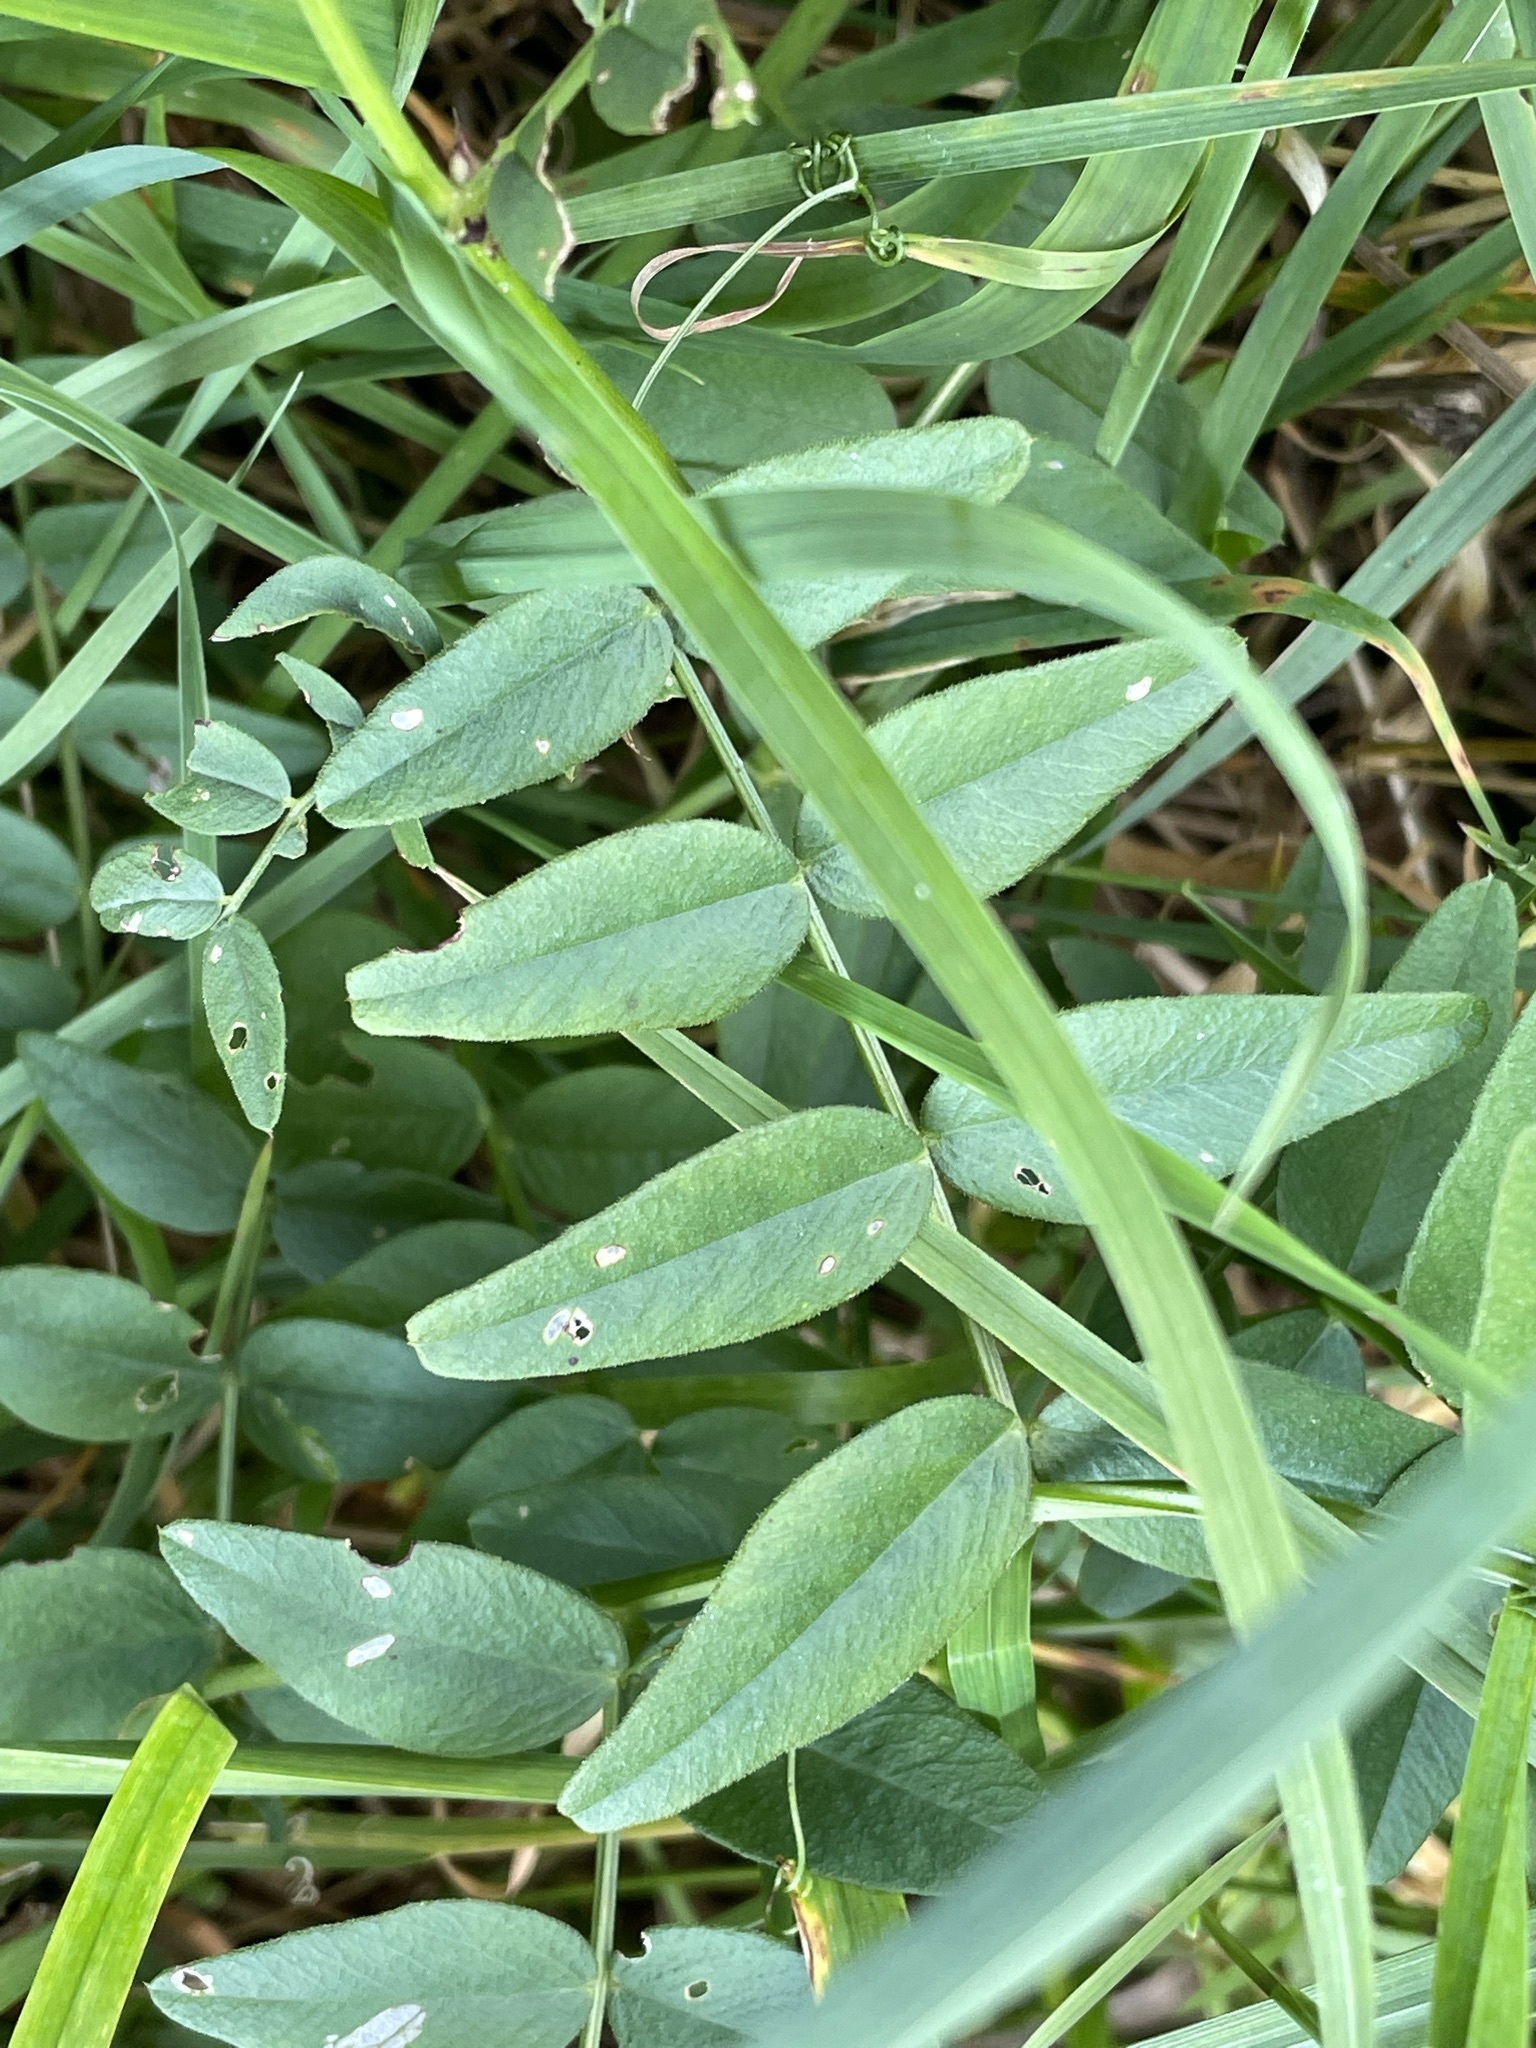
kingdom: Plantae
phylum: Tracheophyta
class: Magnoliopsida
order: Fabales
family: Fabaceae
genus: Vicia
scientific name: Vicia sepium
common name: Bush vetch
